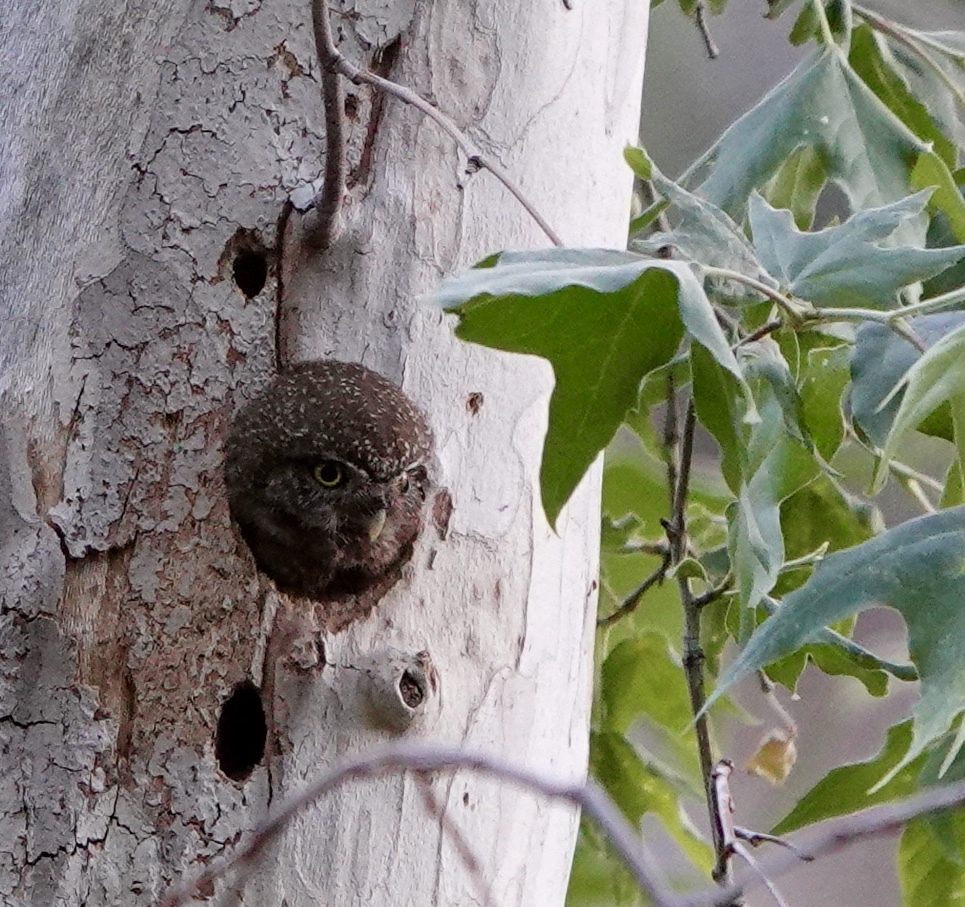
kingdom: Animalia
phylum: Chordata
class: Aves
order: Strigiformes
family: Strigidae
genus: Glaucidium
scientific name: Glaucidium gnoma
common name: Northern pygmy-owl
